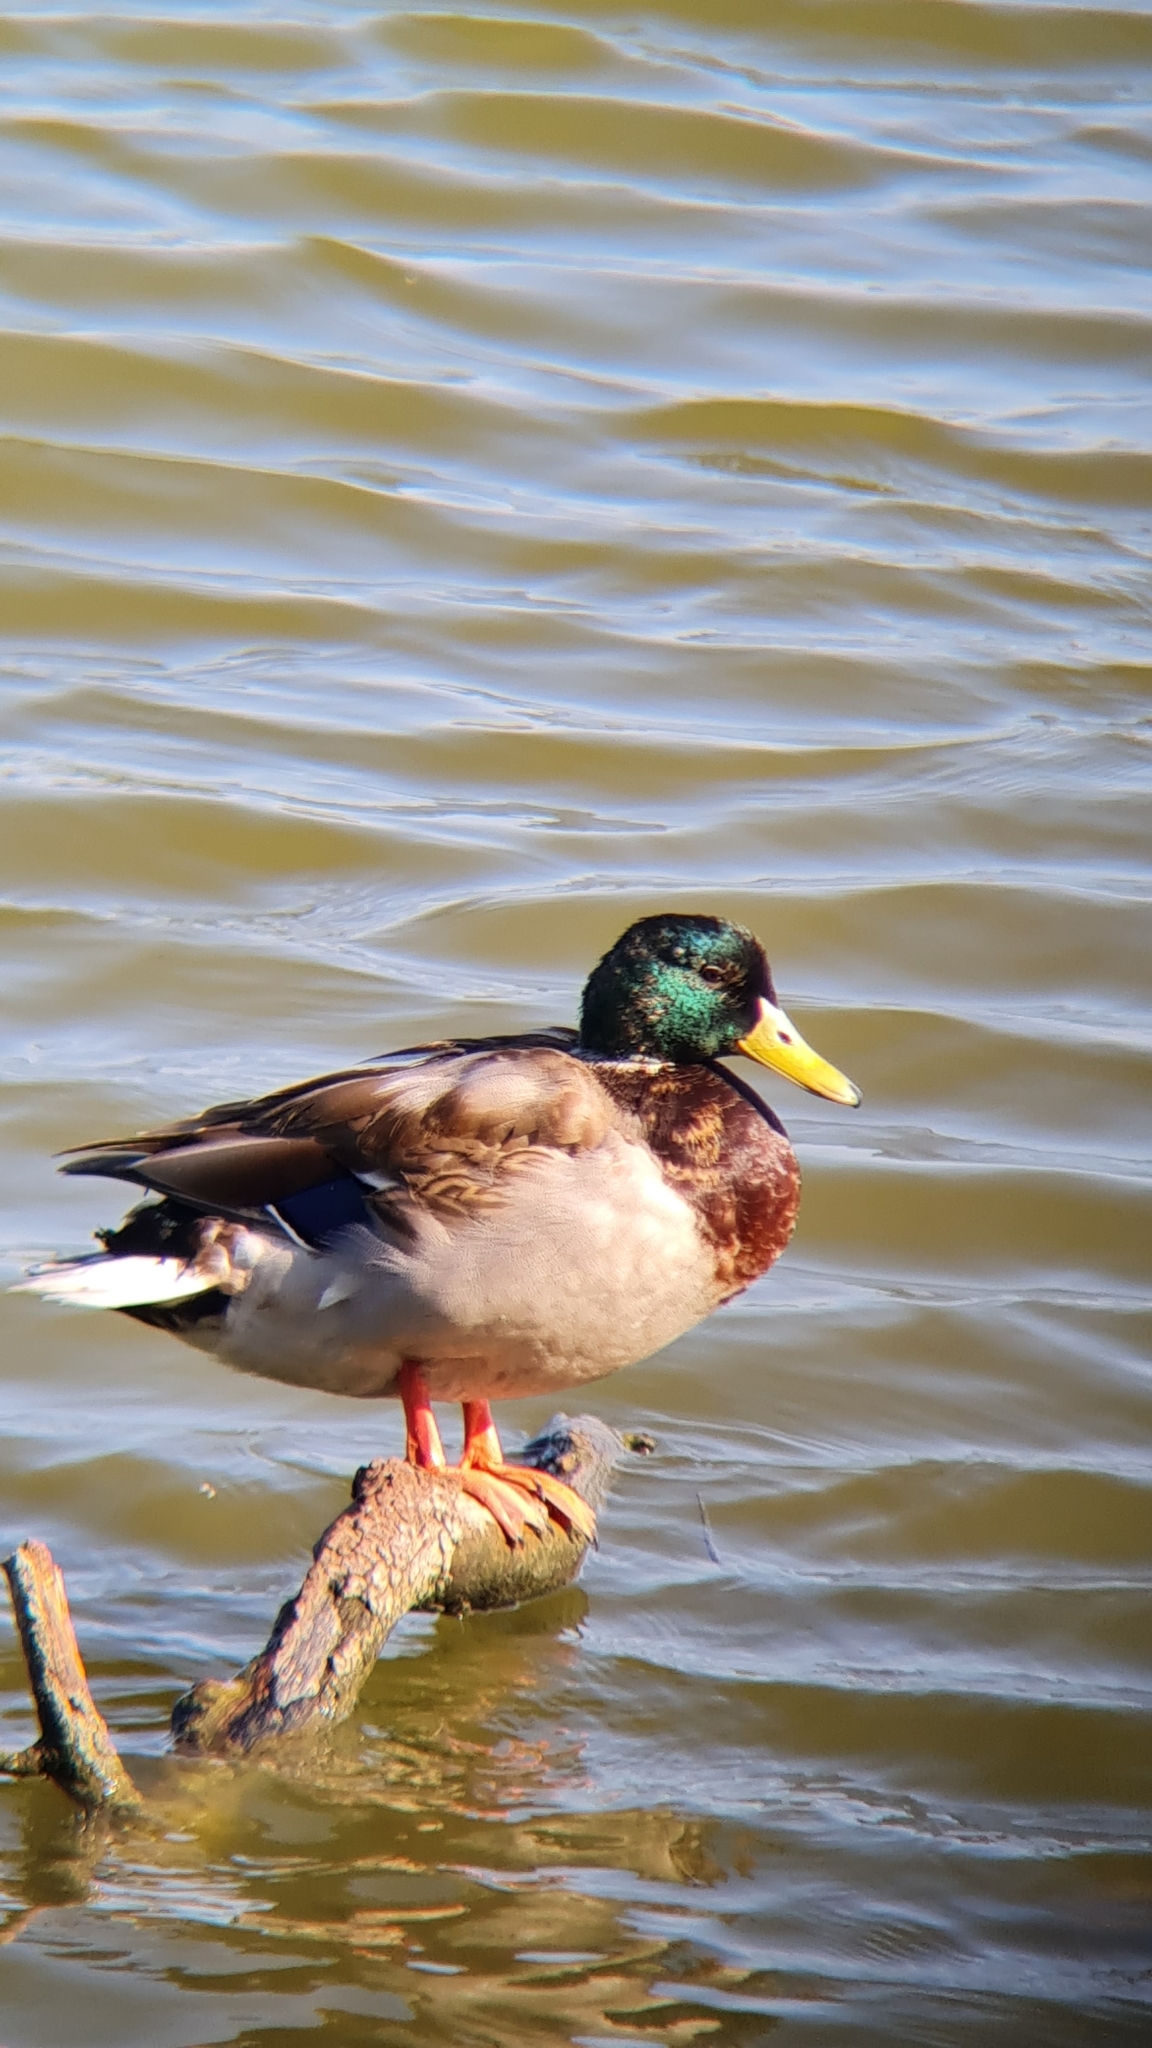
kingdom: Animalia
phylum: Chordata
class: Aves
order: Anseriformes
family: Anatidae
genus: Anas
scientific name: Anas platyrhynchos
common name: Mallard
